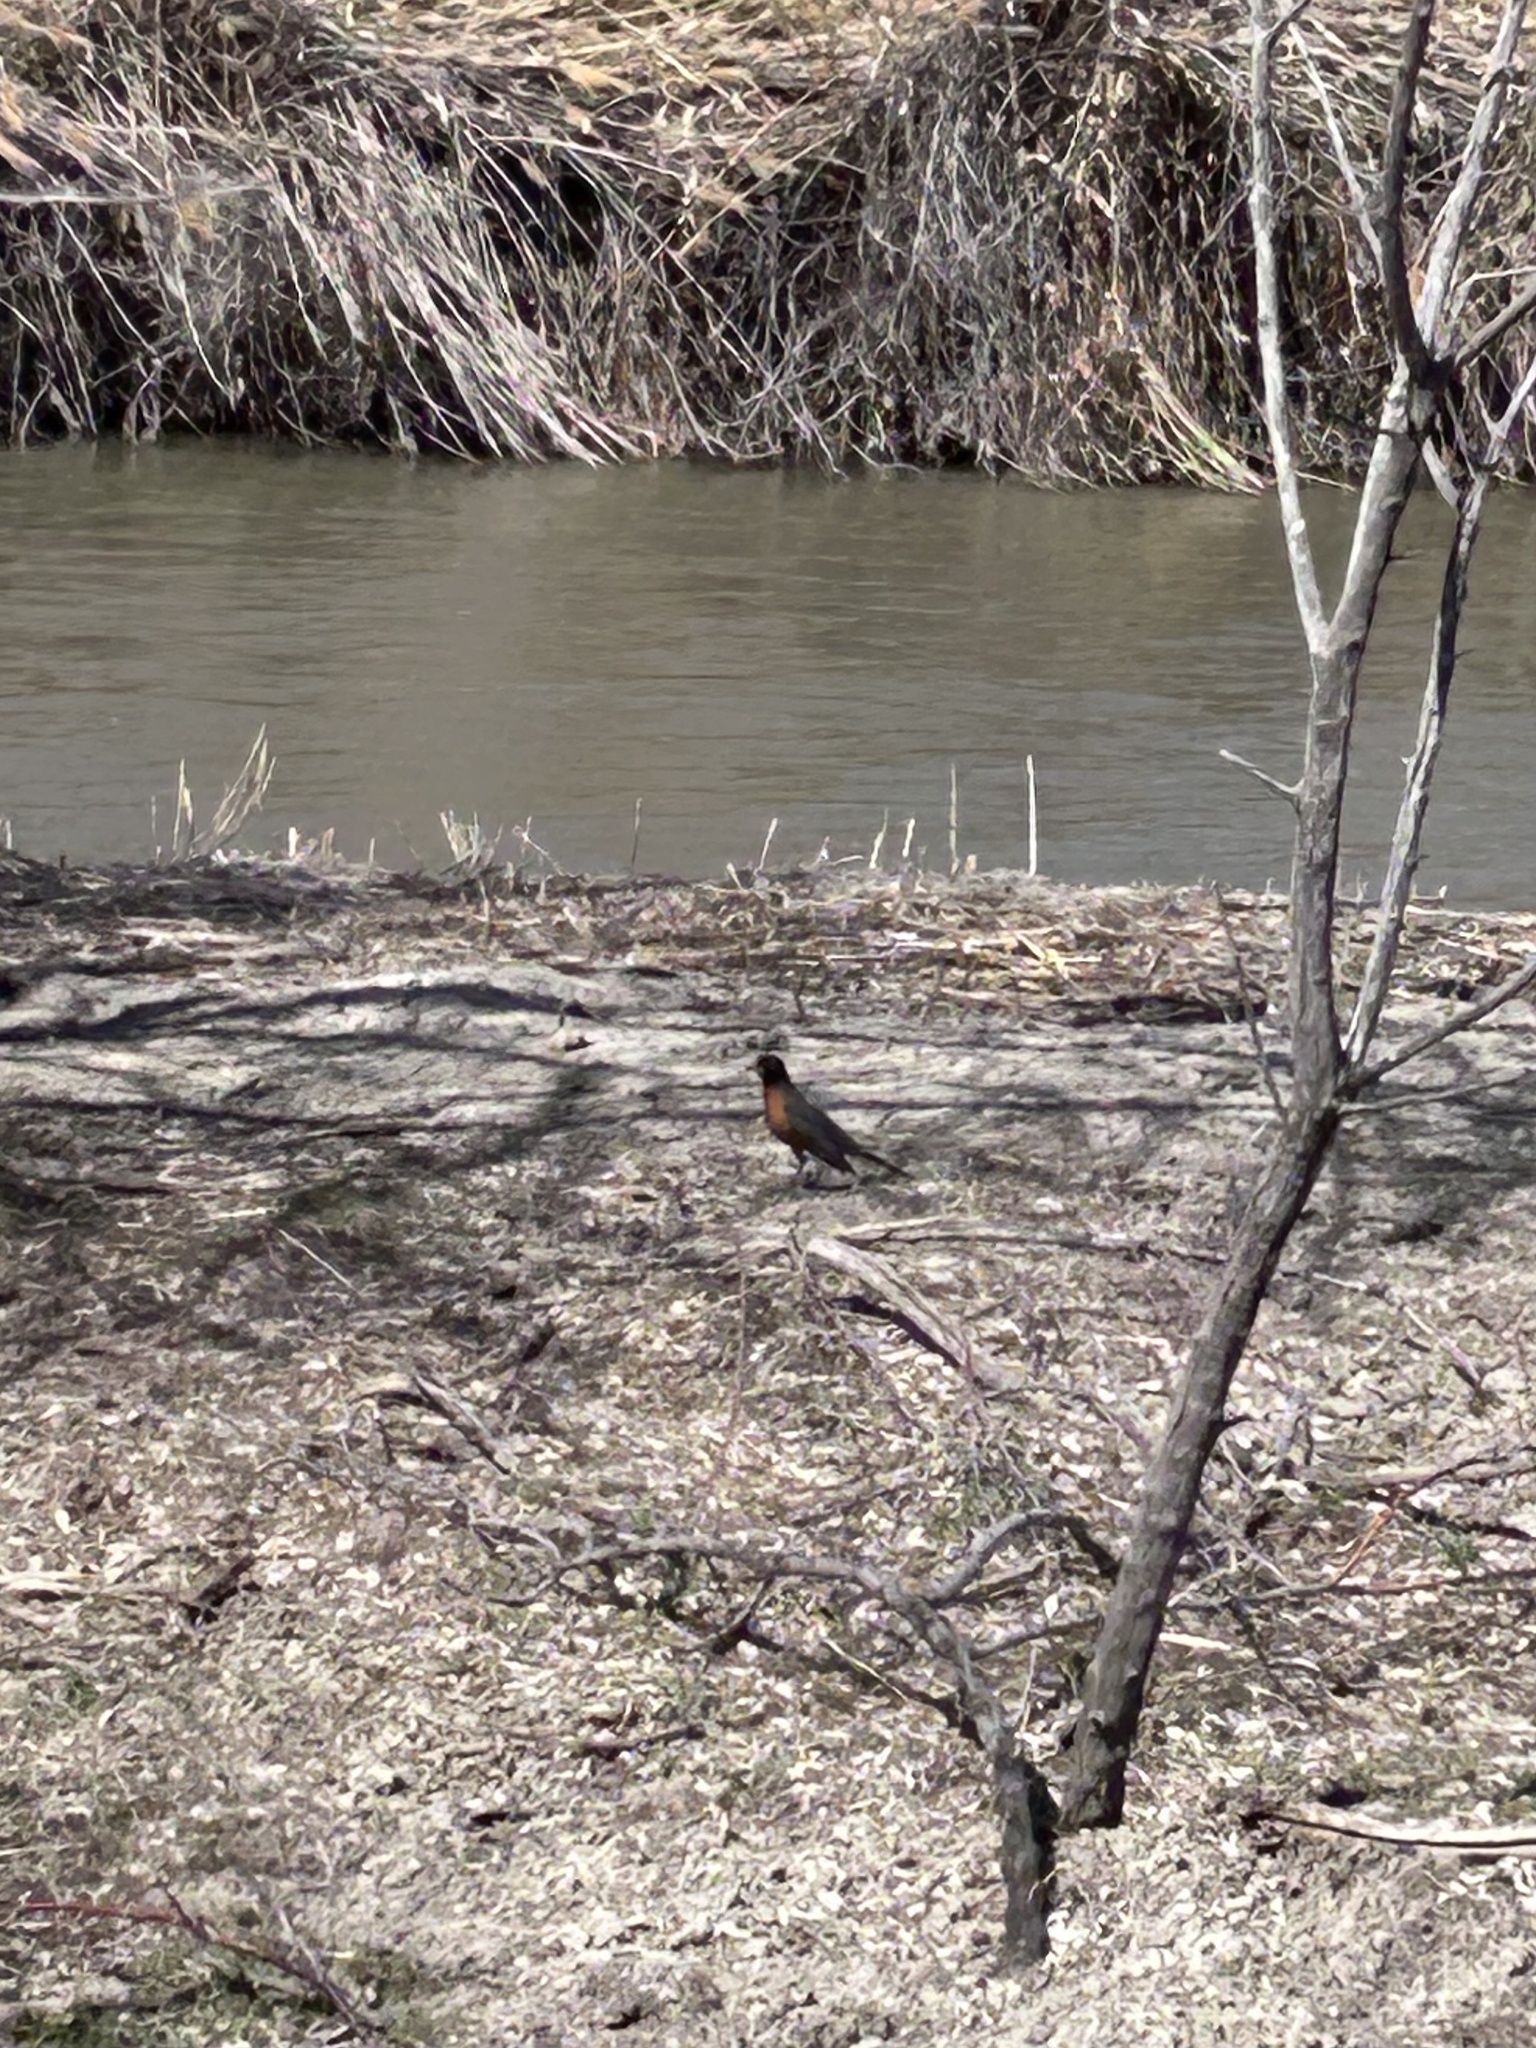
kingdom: Animalia
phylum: Chordata
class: Aves
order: Passeriformes
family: Turdidae
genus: Turdus
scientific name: Turdus migratorius
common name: American robin
